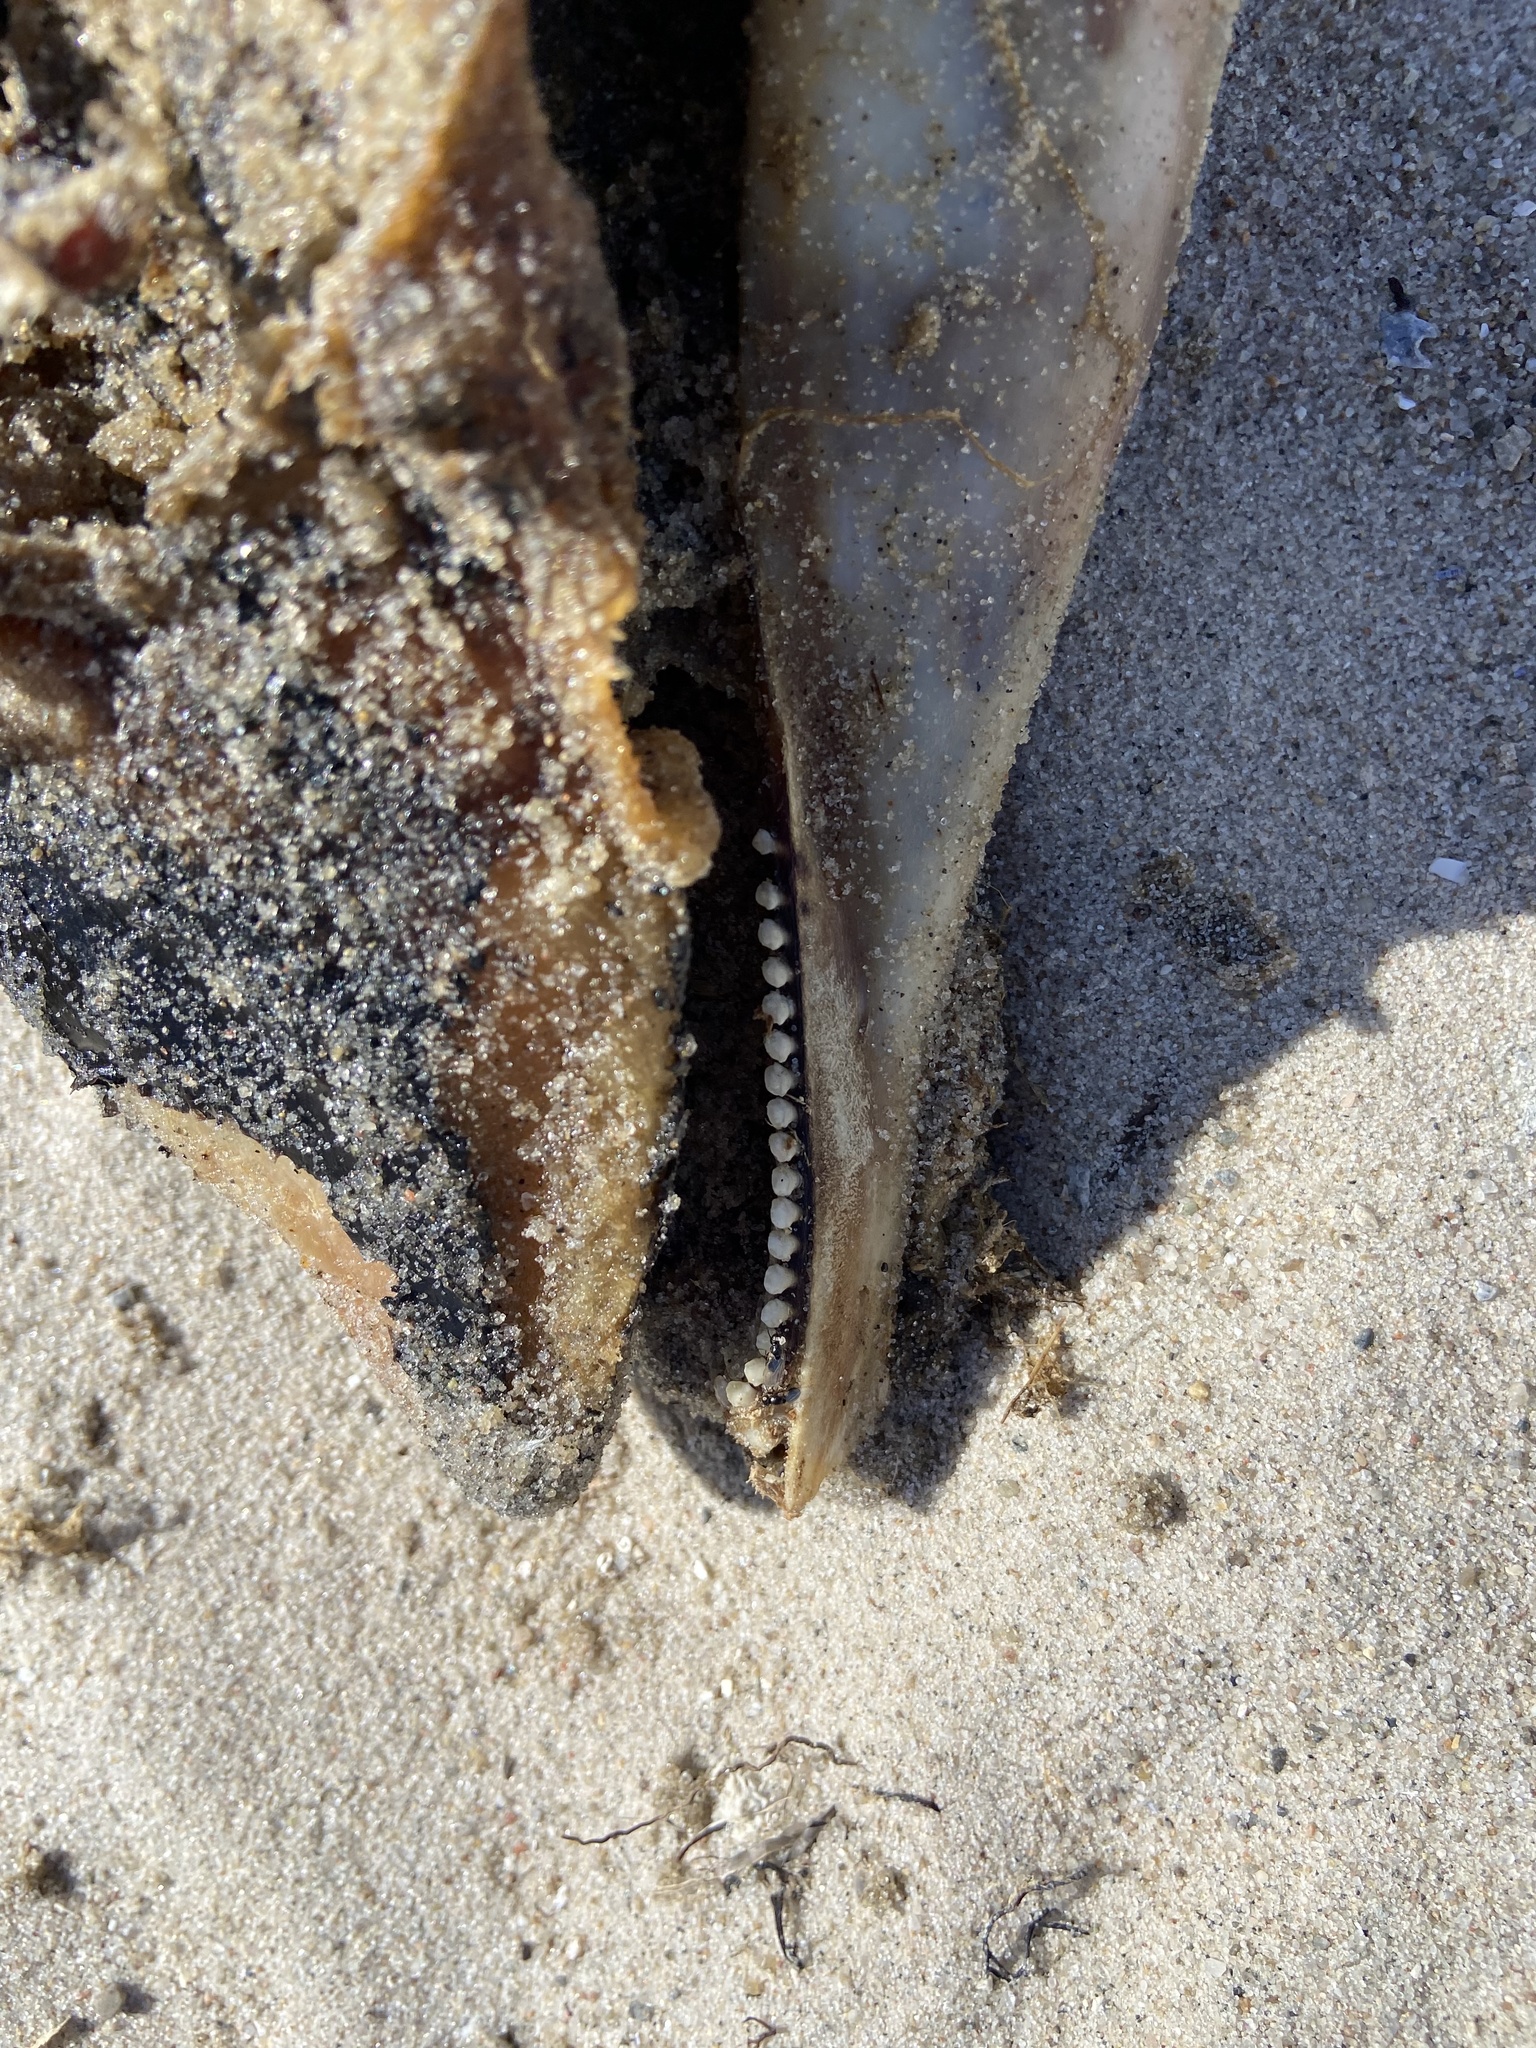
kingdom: Animalia
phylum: Chordata
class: Mammalia
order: Cetacea
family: Phocoenidae
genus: Phocoena
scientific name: Phocoena phocoena
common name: Harbor porpoise
